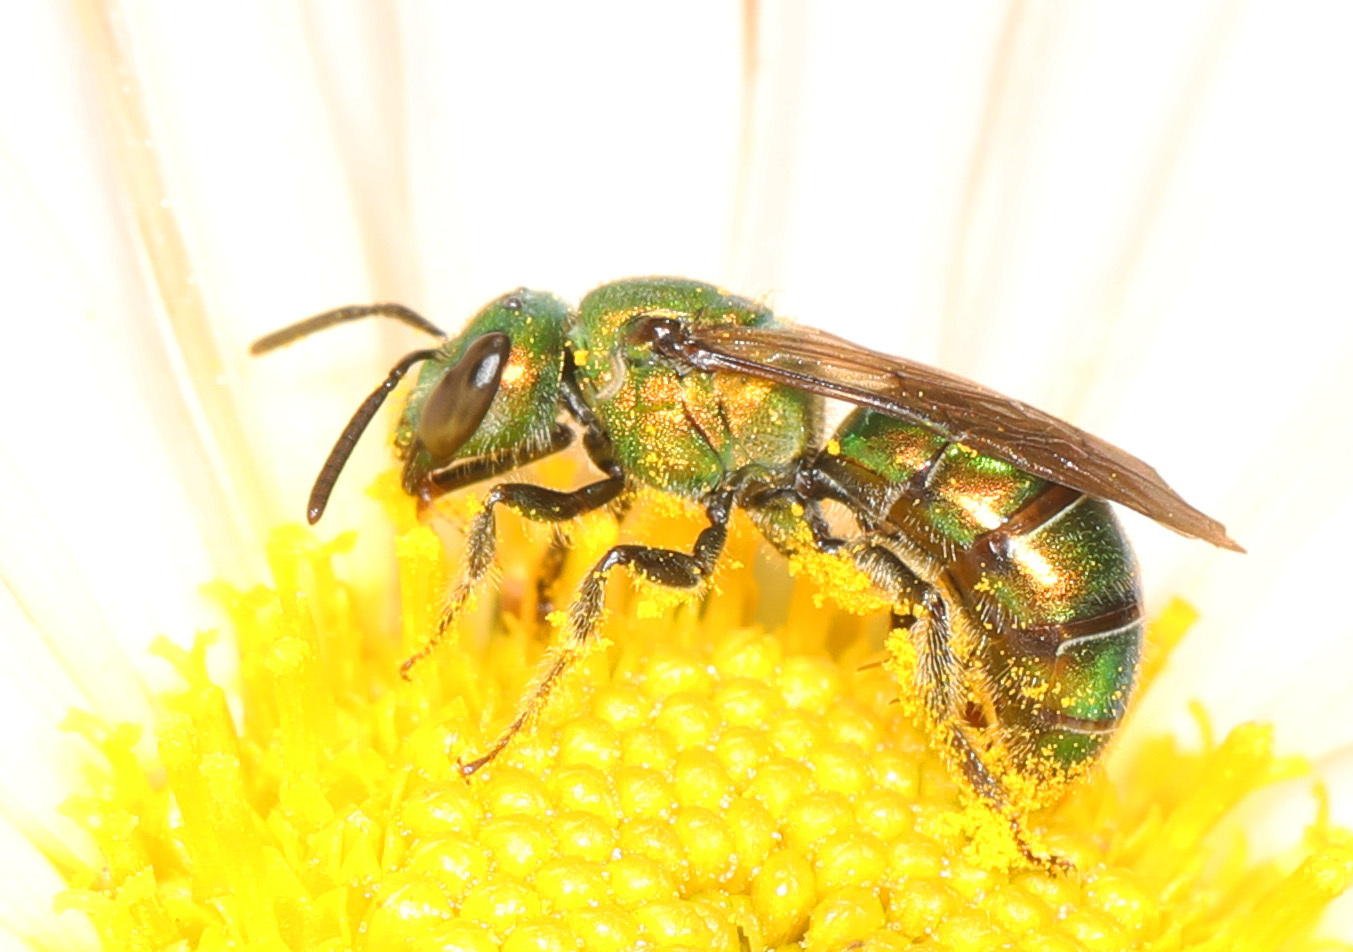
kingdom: Animalia
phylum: Arthropoda
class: Insecta
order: Hymenoptera
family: Halictidae
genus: Augochlora
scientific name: Augochlora pura
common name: Pure green sweat bee
